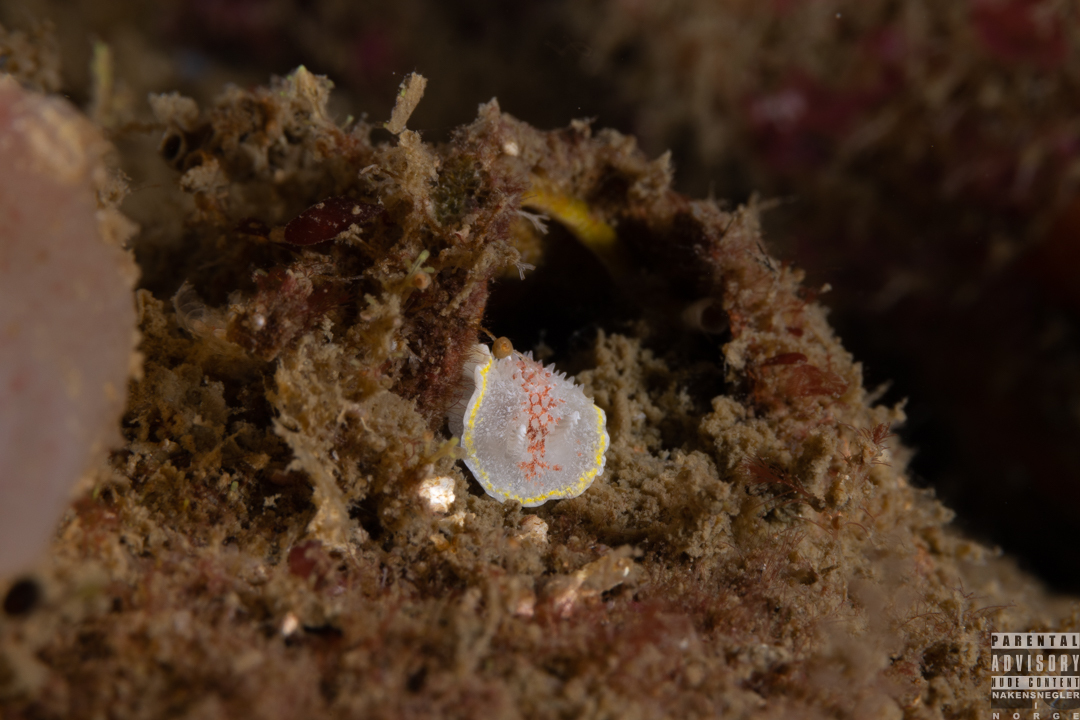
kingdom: Animalia
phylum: Mollusca
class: Gastropoda
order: Nudibranchia
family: Calycidorididae
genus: Diaphorodoris
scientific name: Diaphorodoris luteocincta
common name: Fried egg nudibranch
